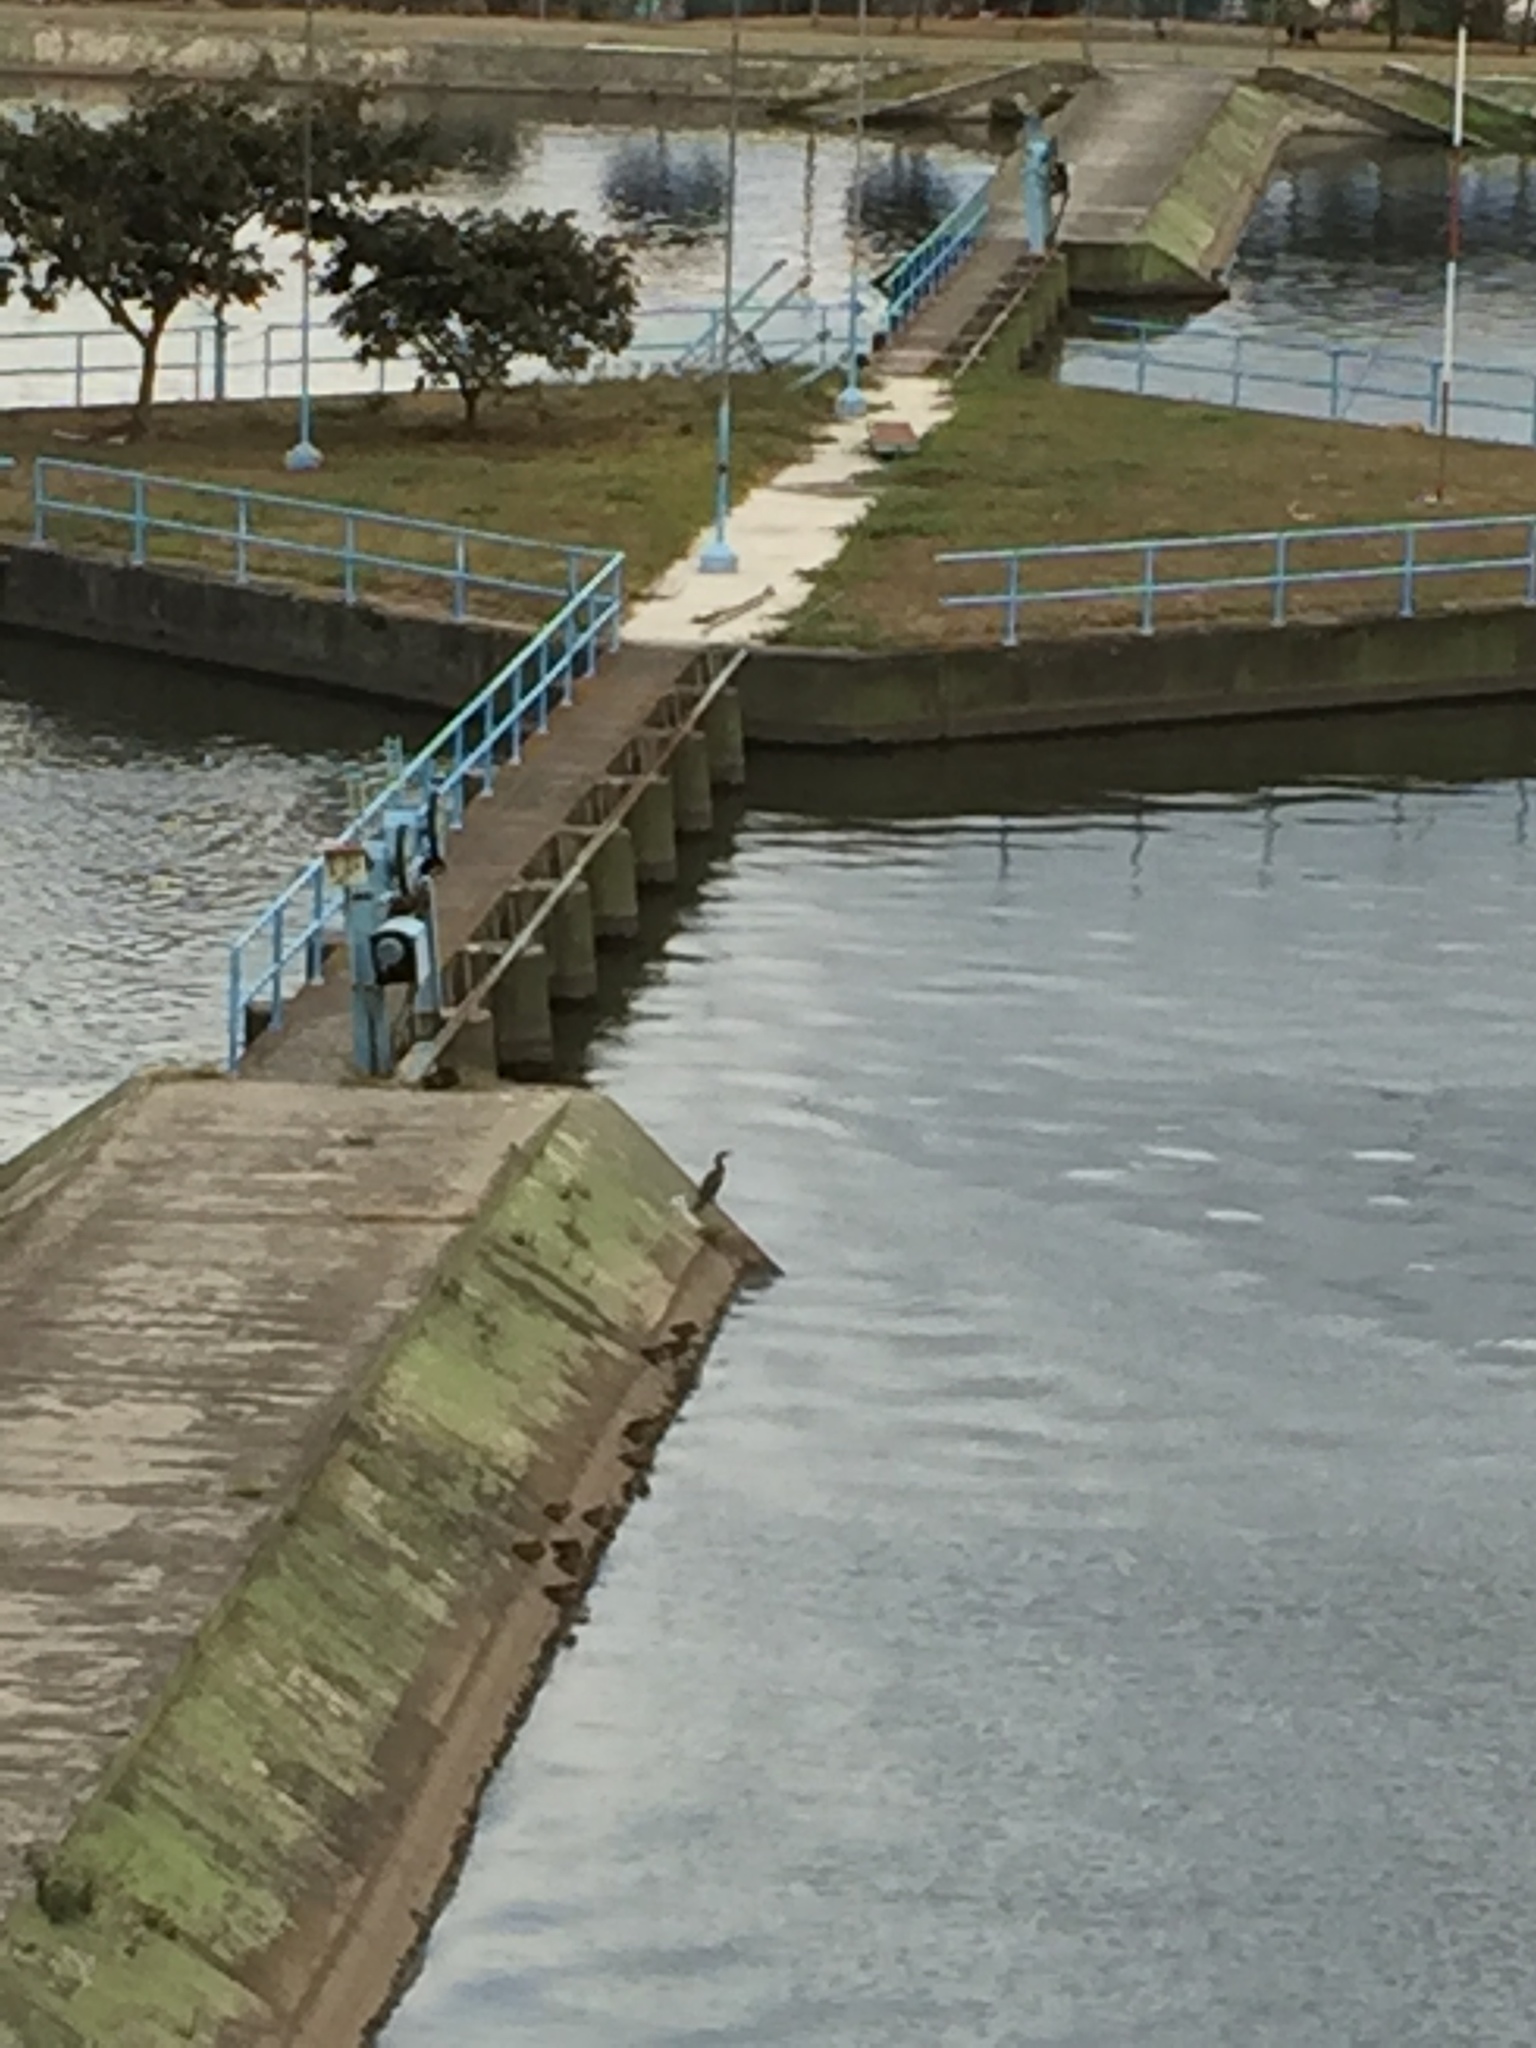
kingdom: Animalia
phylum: Chordata
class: Aves
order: Suliformes
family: Phalacrocoracidae
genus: Phalacrocorax
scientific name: Phalacrocorax brasilianus
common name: Neotropic cormorant
